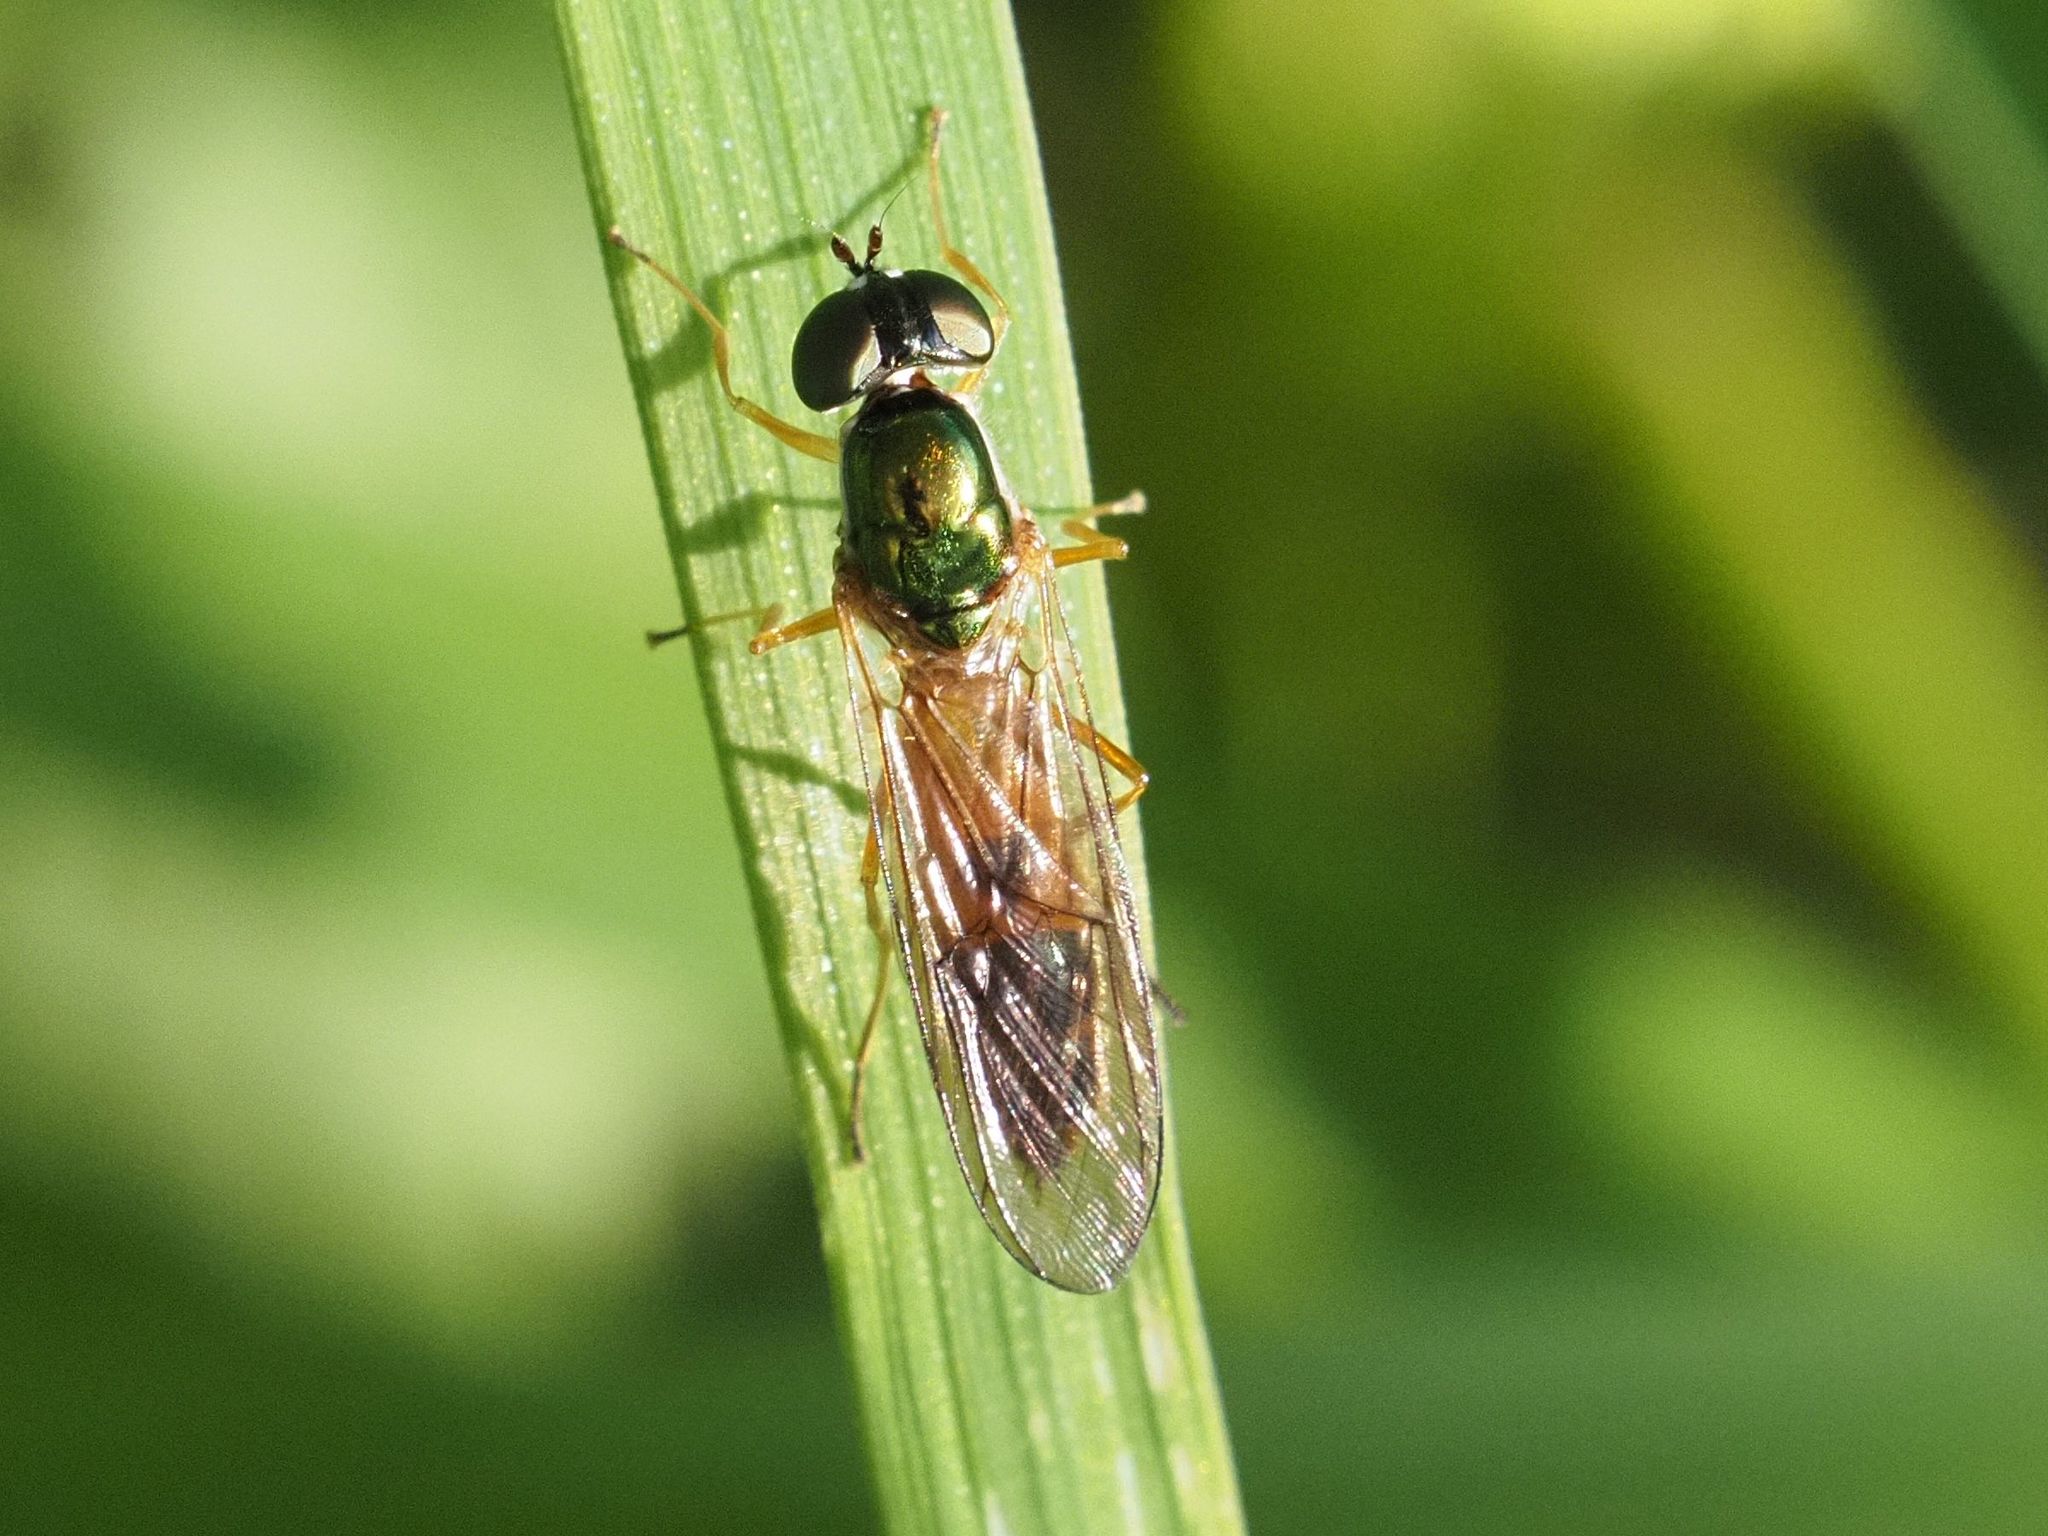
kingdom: Animalia
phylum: Arthropoda
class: Insecta
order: Diptera
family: Stratiomyidae
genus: Sargus
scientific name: Sargus bipunctatus
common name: Twin-spot centurion
